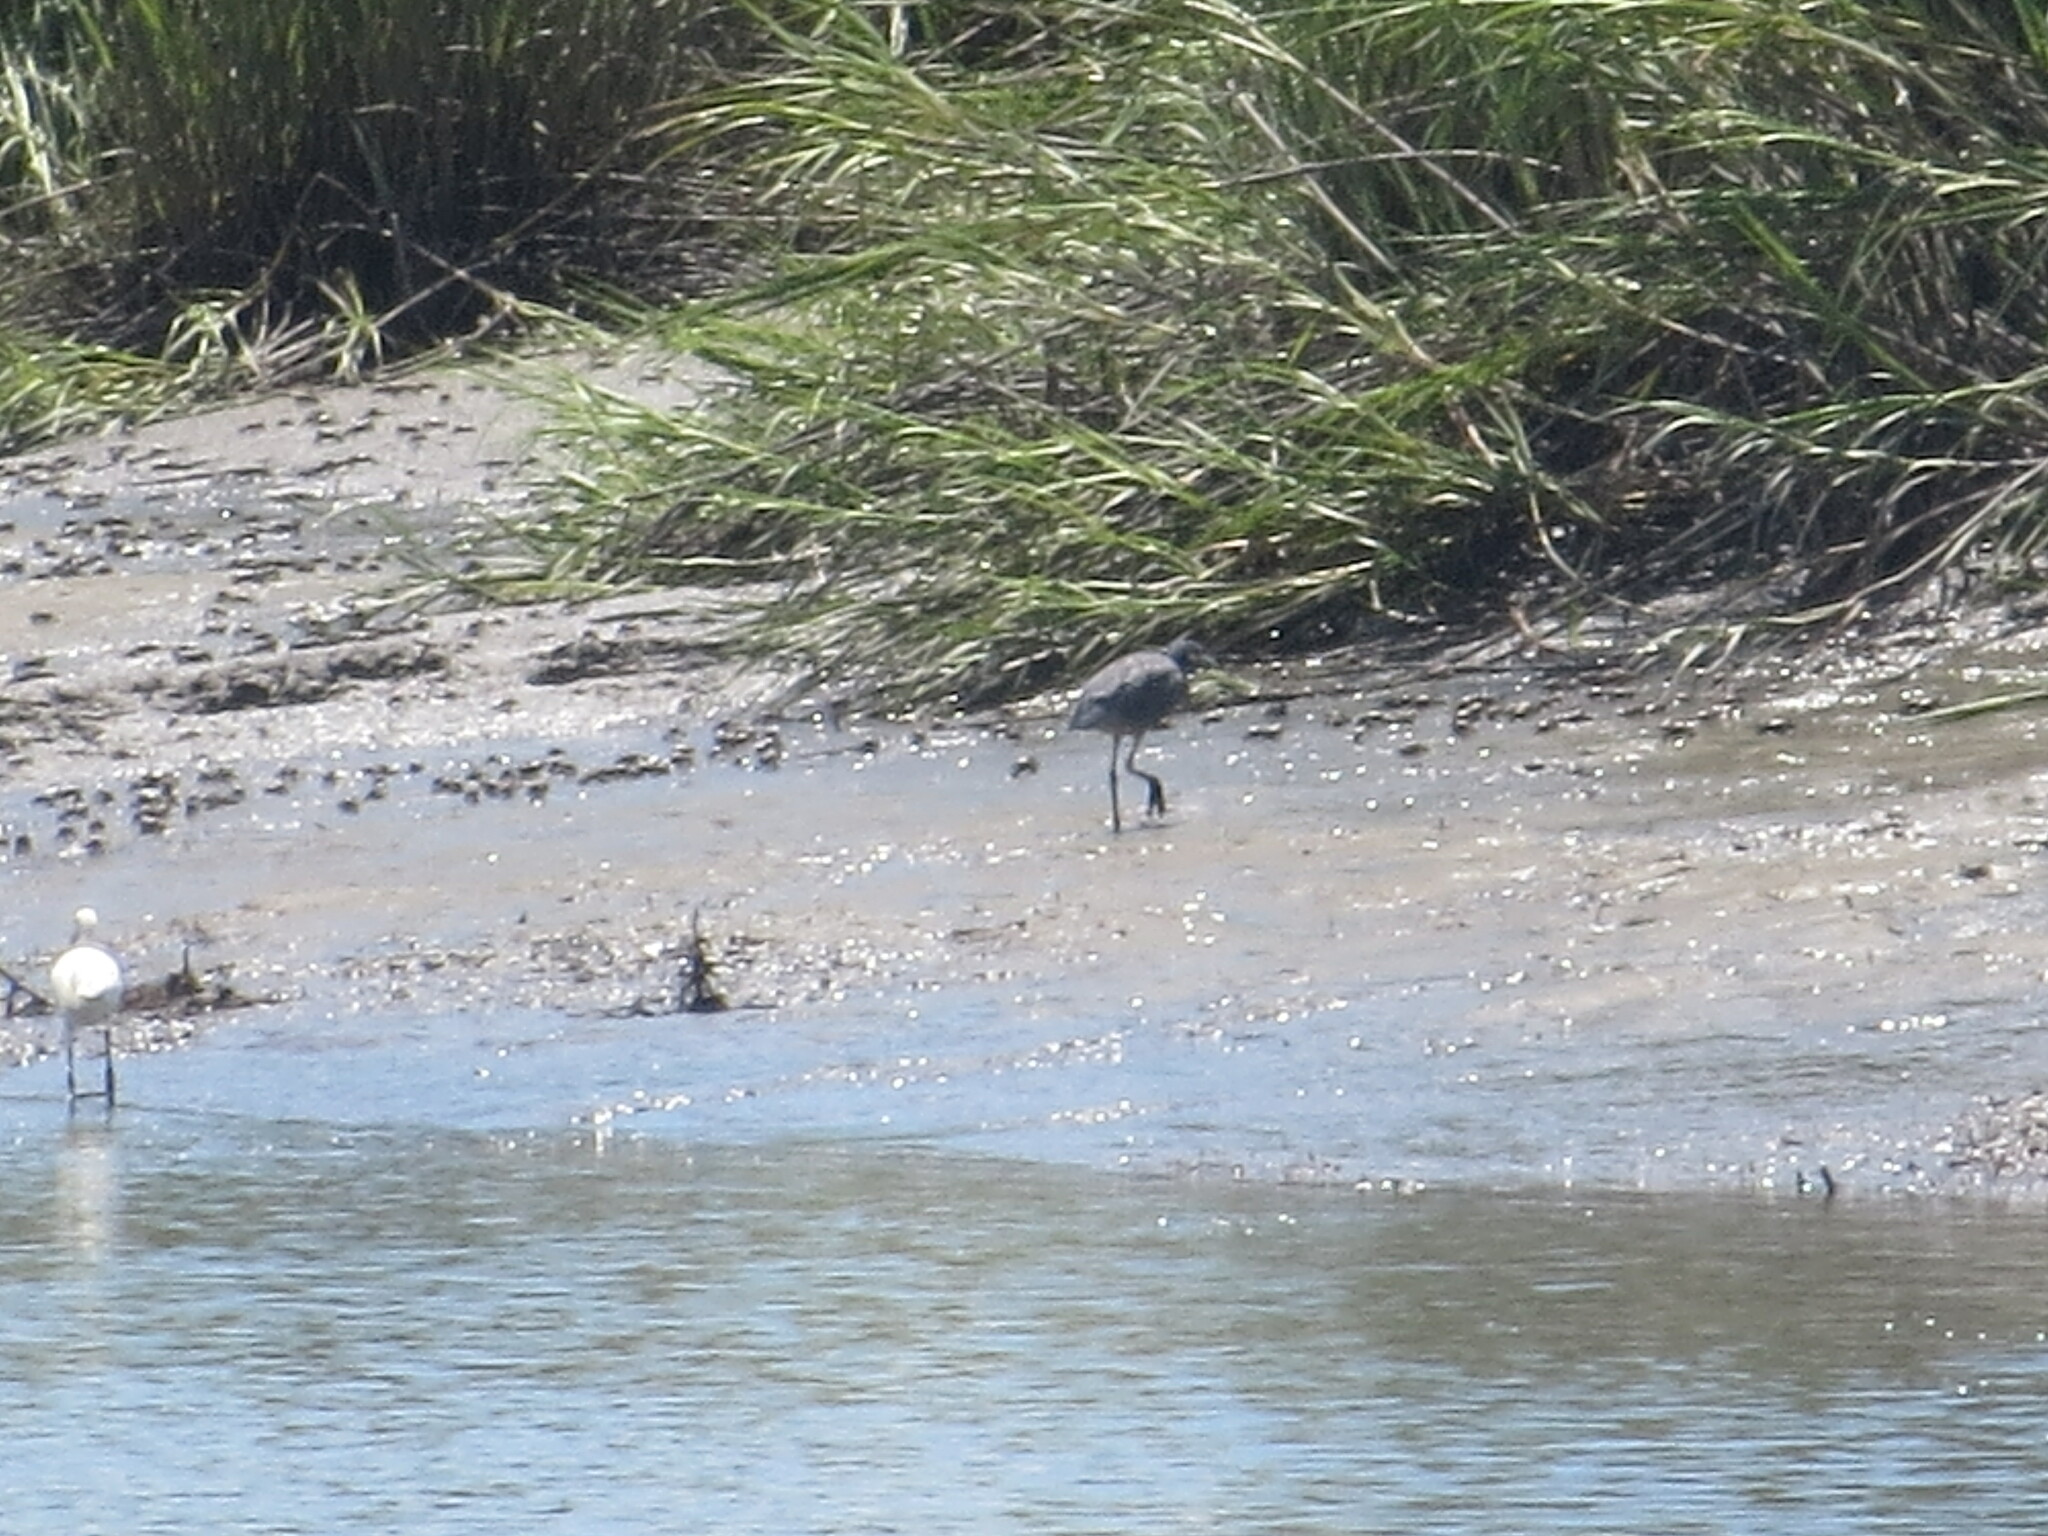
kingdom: Animalia
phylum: Chordata
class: Aves
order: Pelecaniformes
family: Ardeidae
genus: Nyctanassa
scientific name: Nyctanassa violacea
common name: Yellow-crowned night heron
